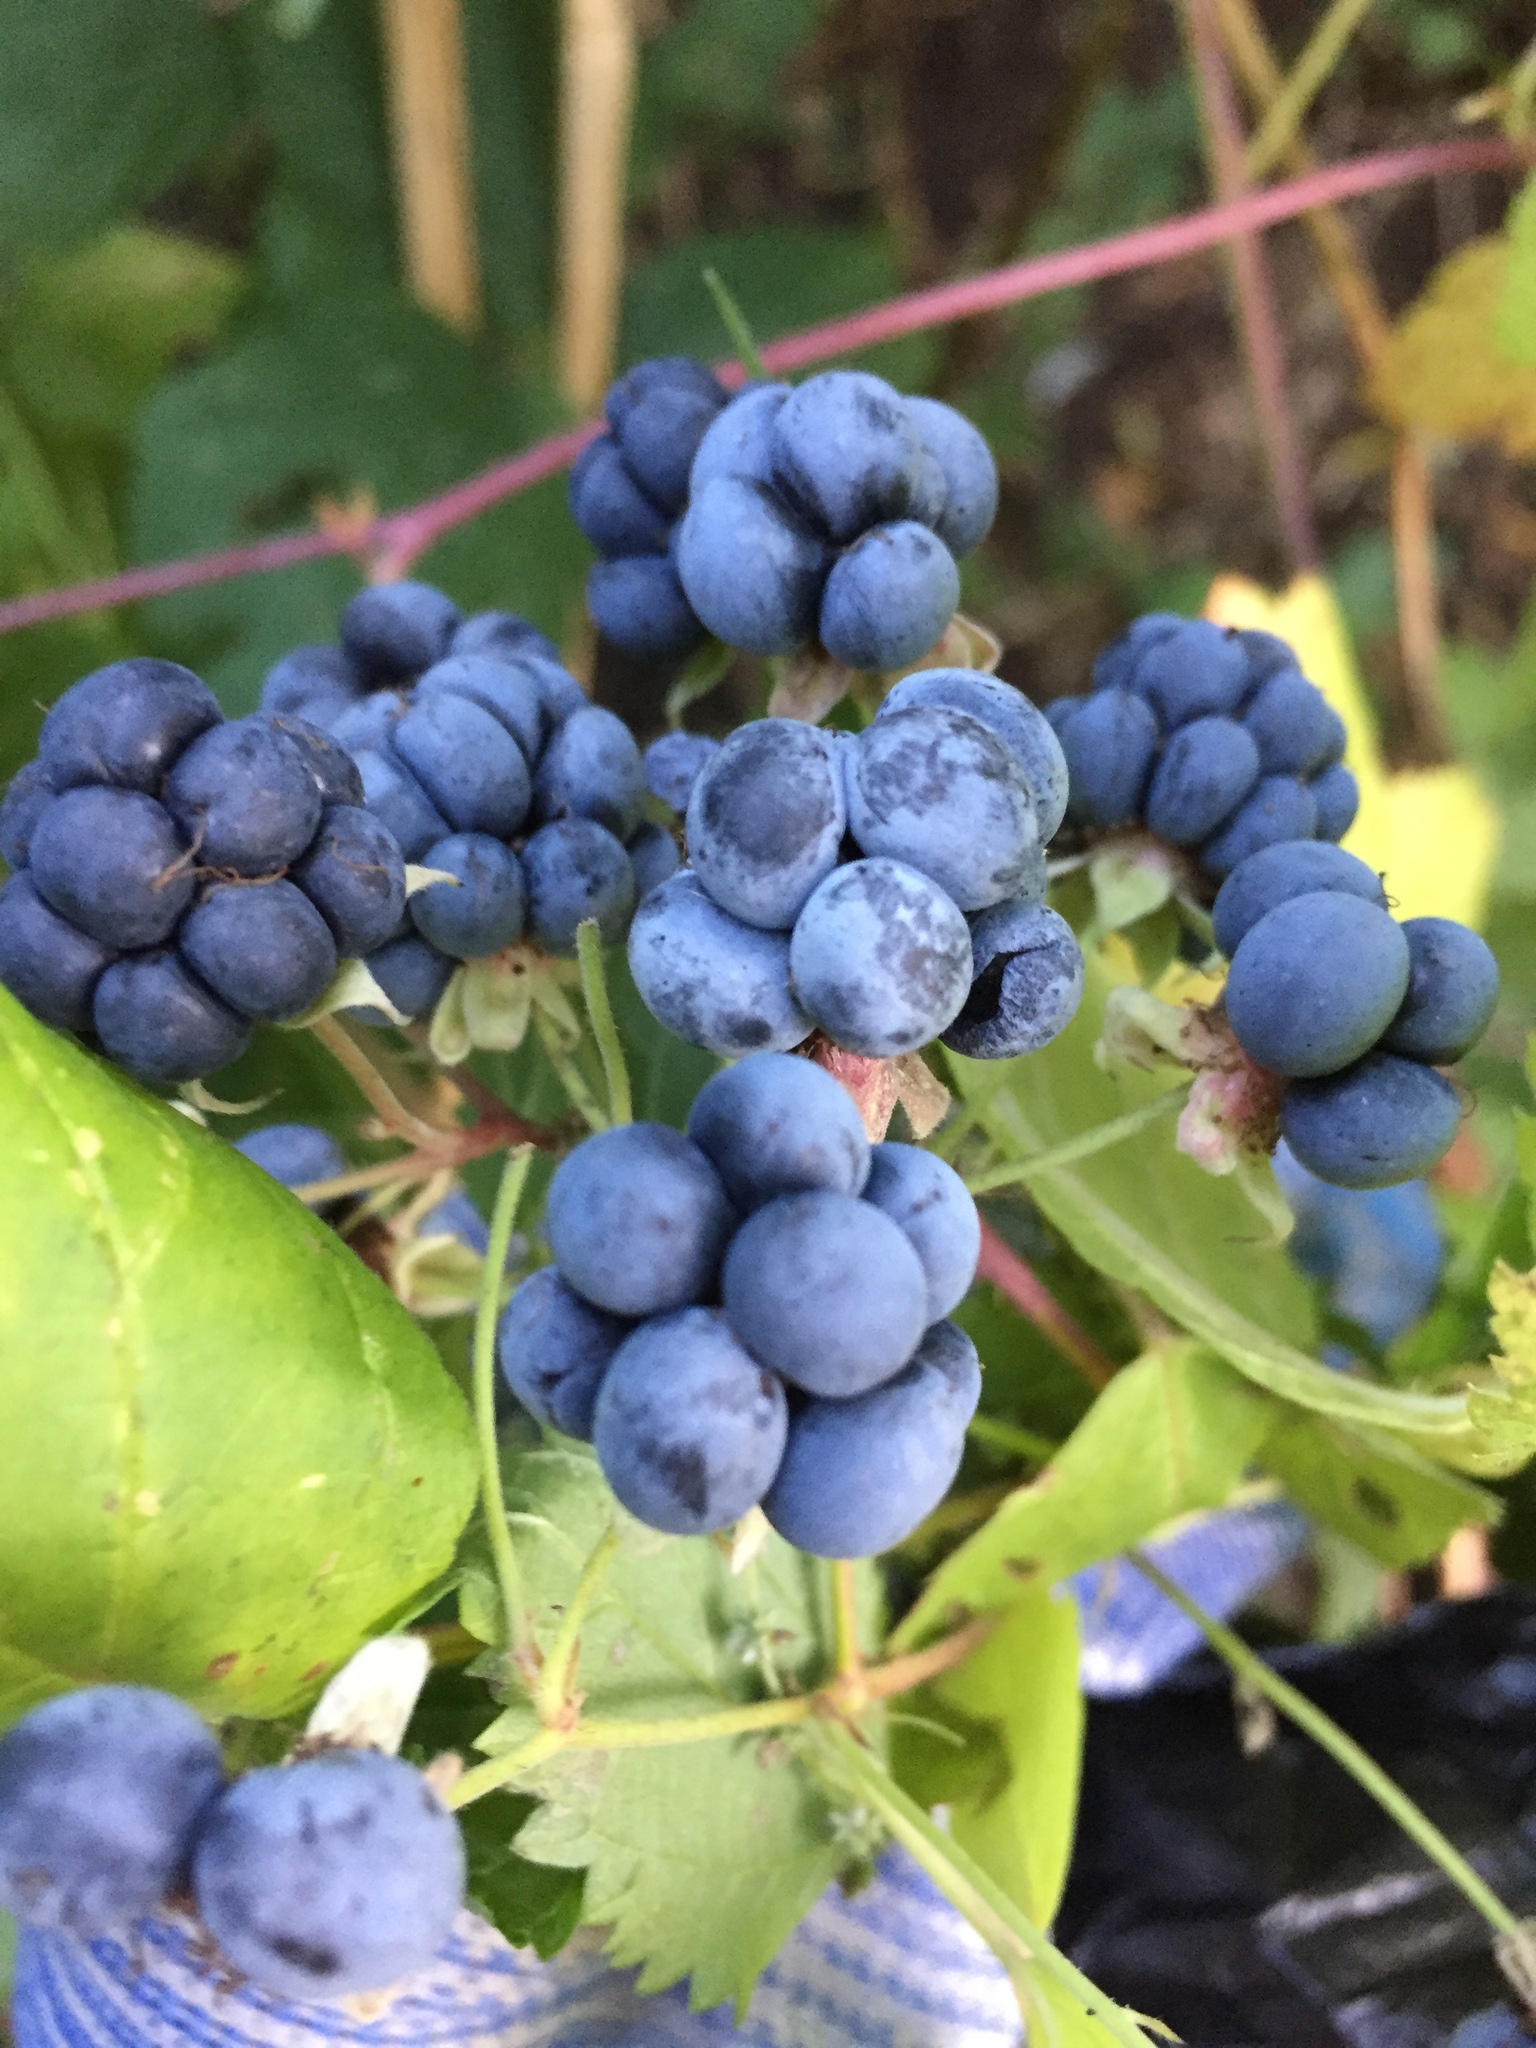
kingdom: Plantae
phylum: Tracheophyta
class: Magnoliopsida
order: Rosales
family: Rosaceae
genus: Rubus
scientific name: Rubus caesius
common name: Dewberry
